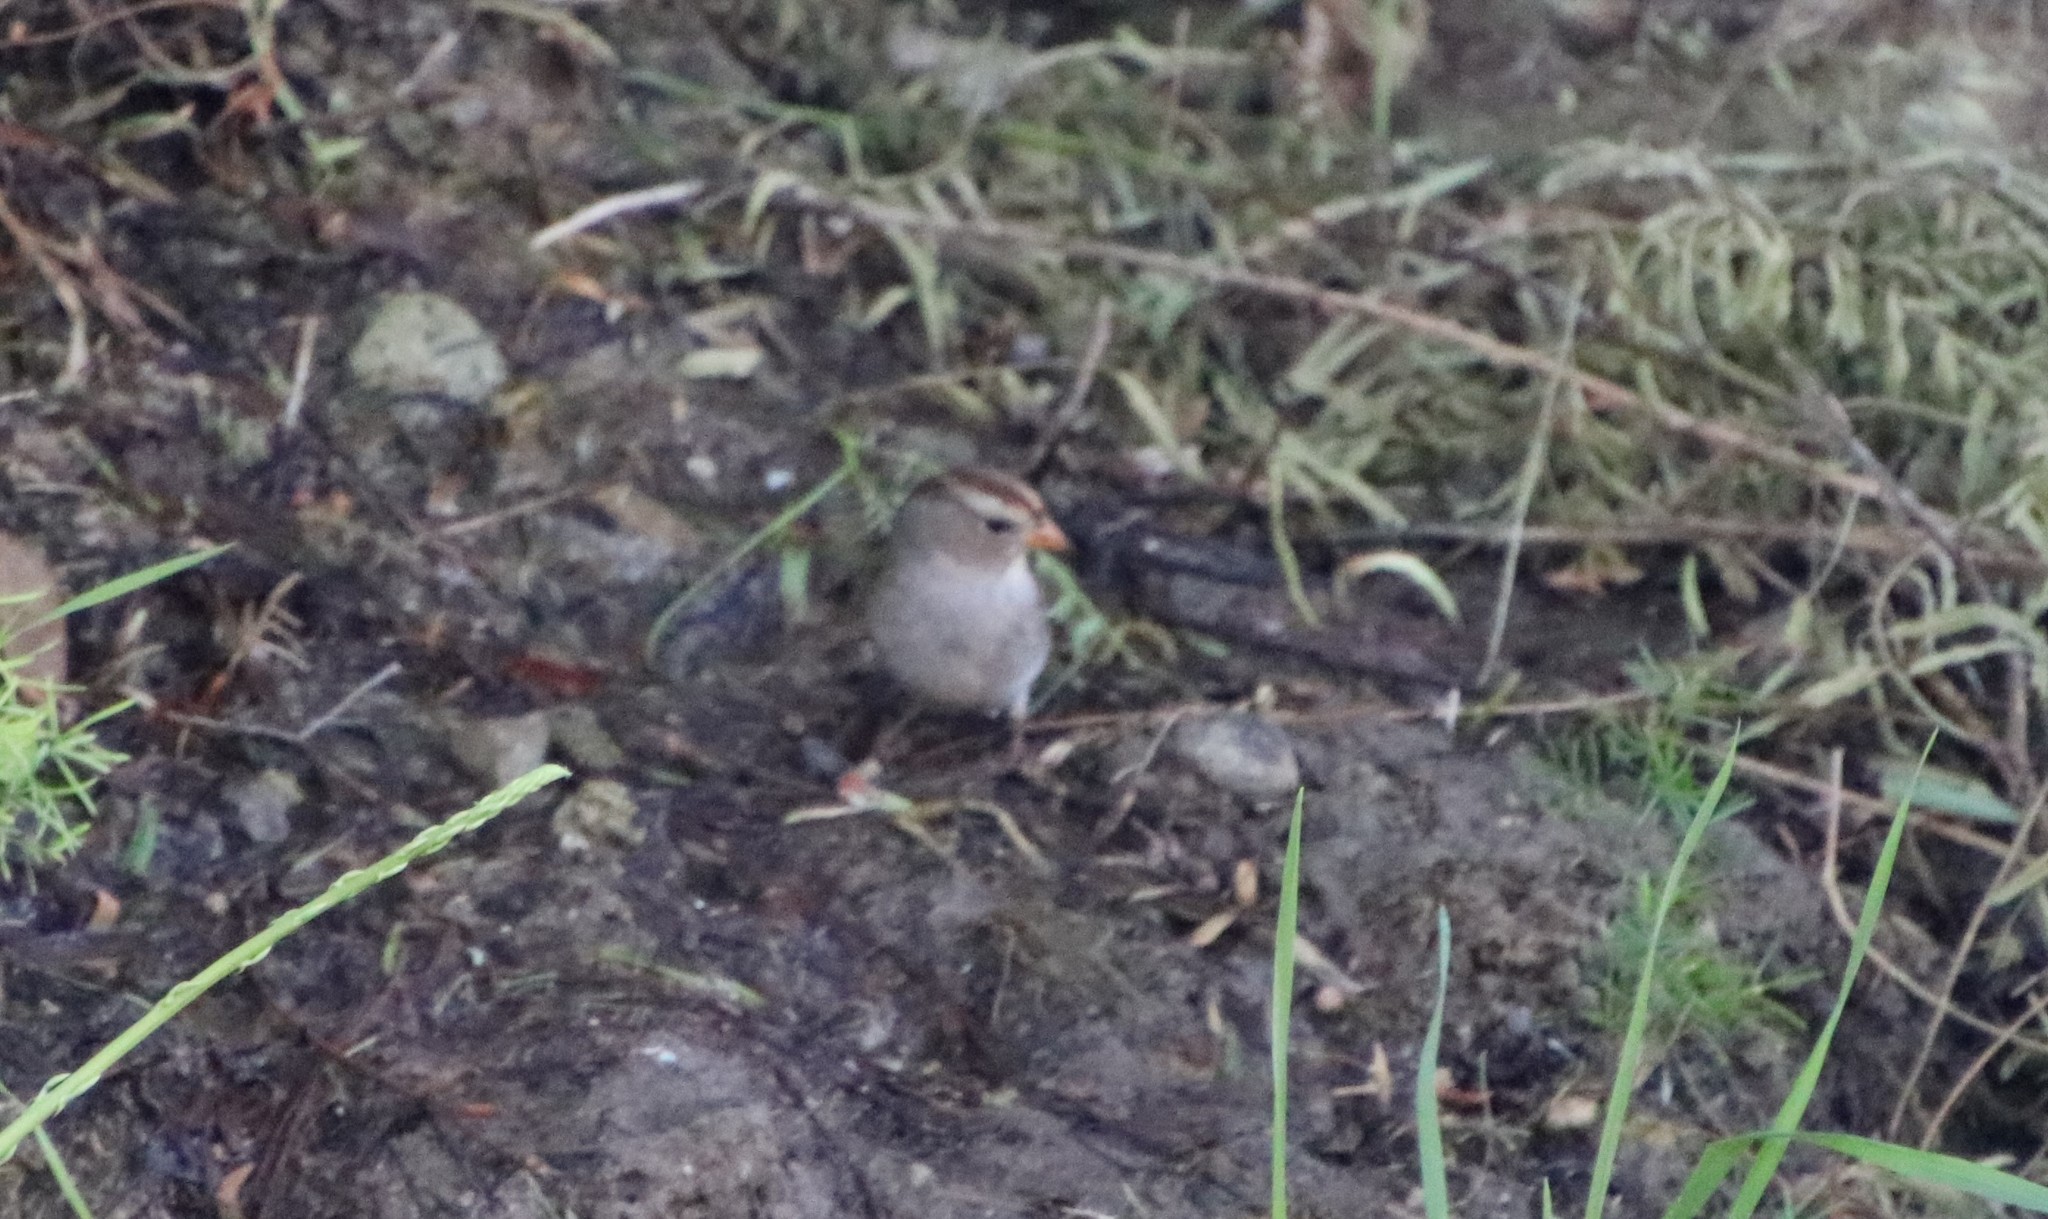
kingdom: Animalia
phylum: Chordata
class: Aves
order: Passeriformes
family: Passerellidae
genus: Zonotrichia
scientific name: Zonotrichia leucophrys
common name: White-crowned sparrow
